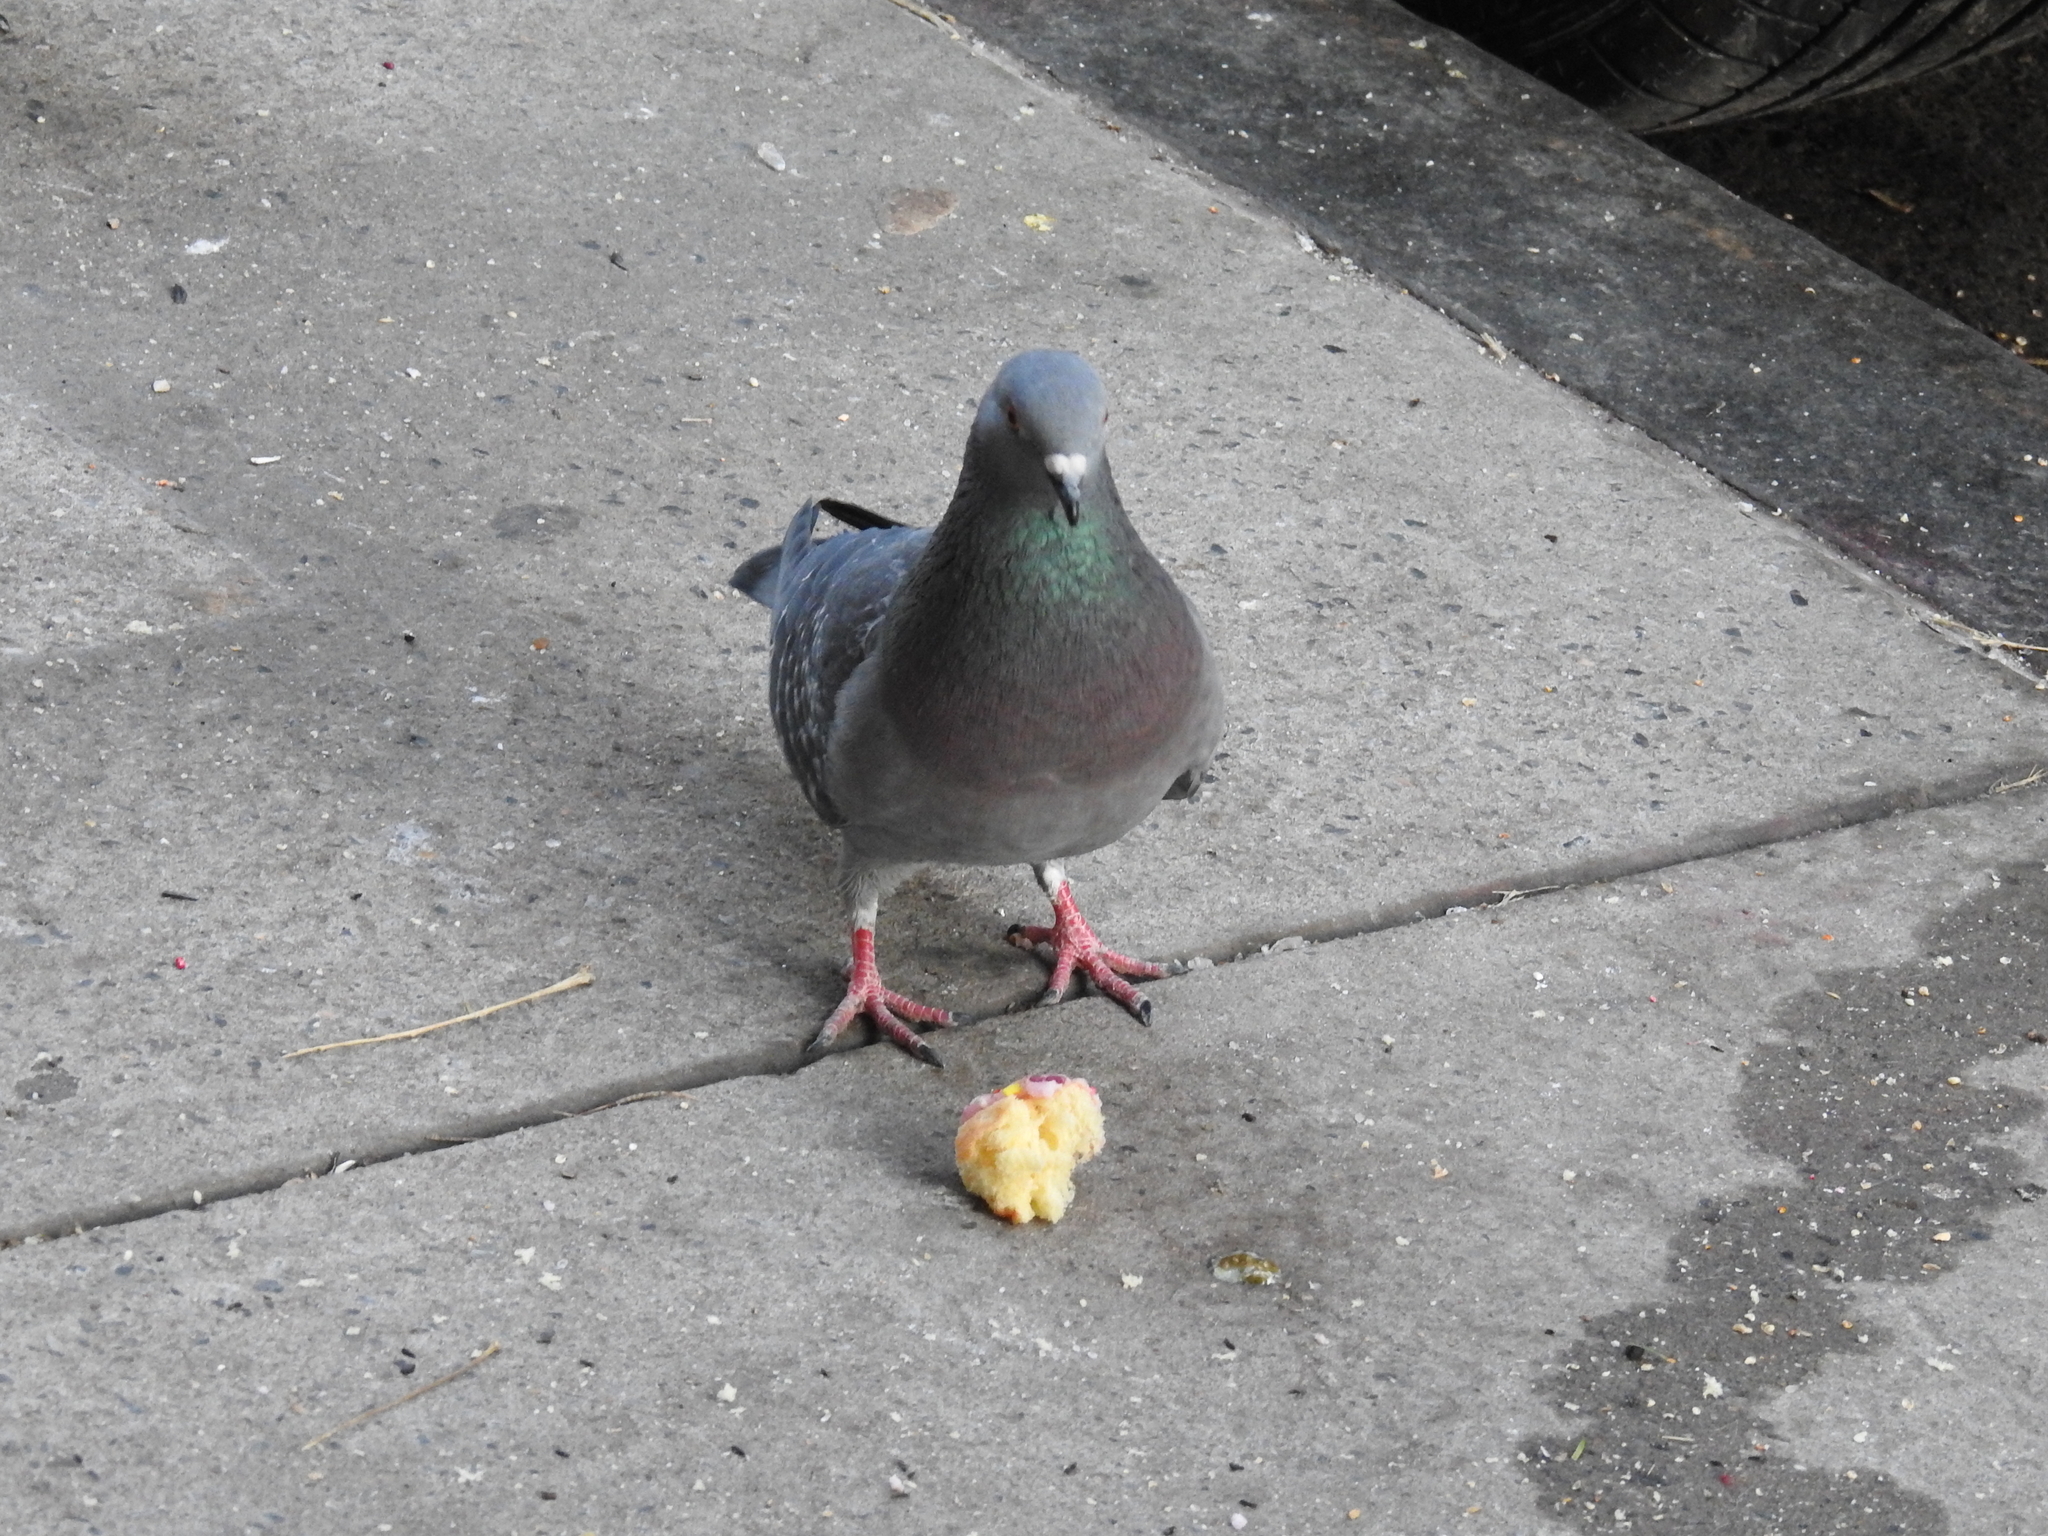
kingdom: Animalia
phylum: Chordata
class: Aves
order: Columbiformes
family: Columbidae
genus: Columba
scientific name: Columba livia
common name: Rock pigeon
